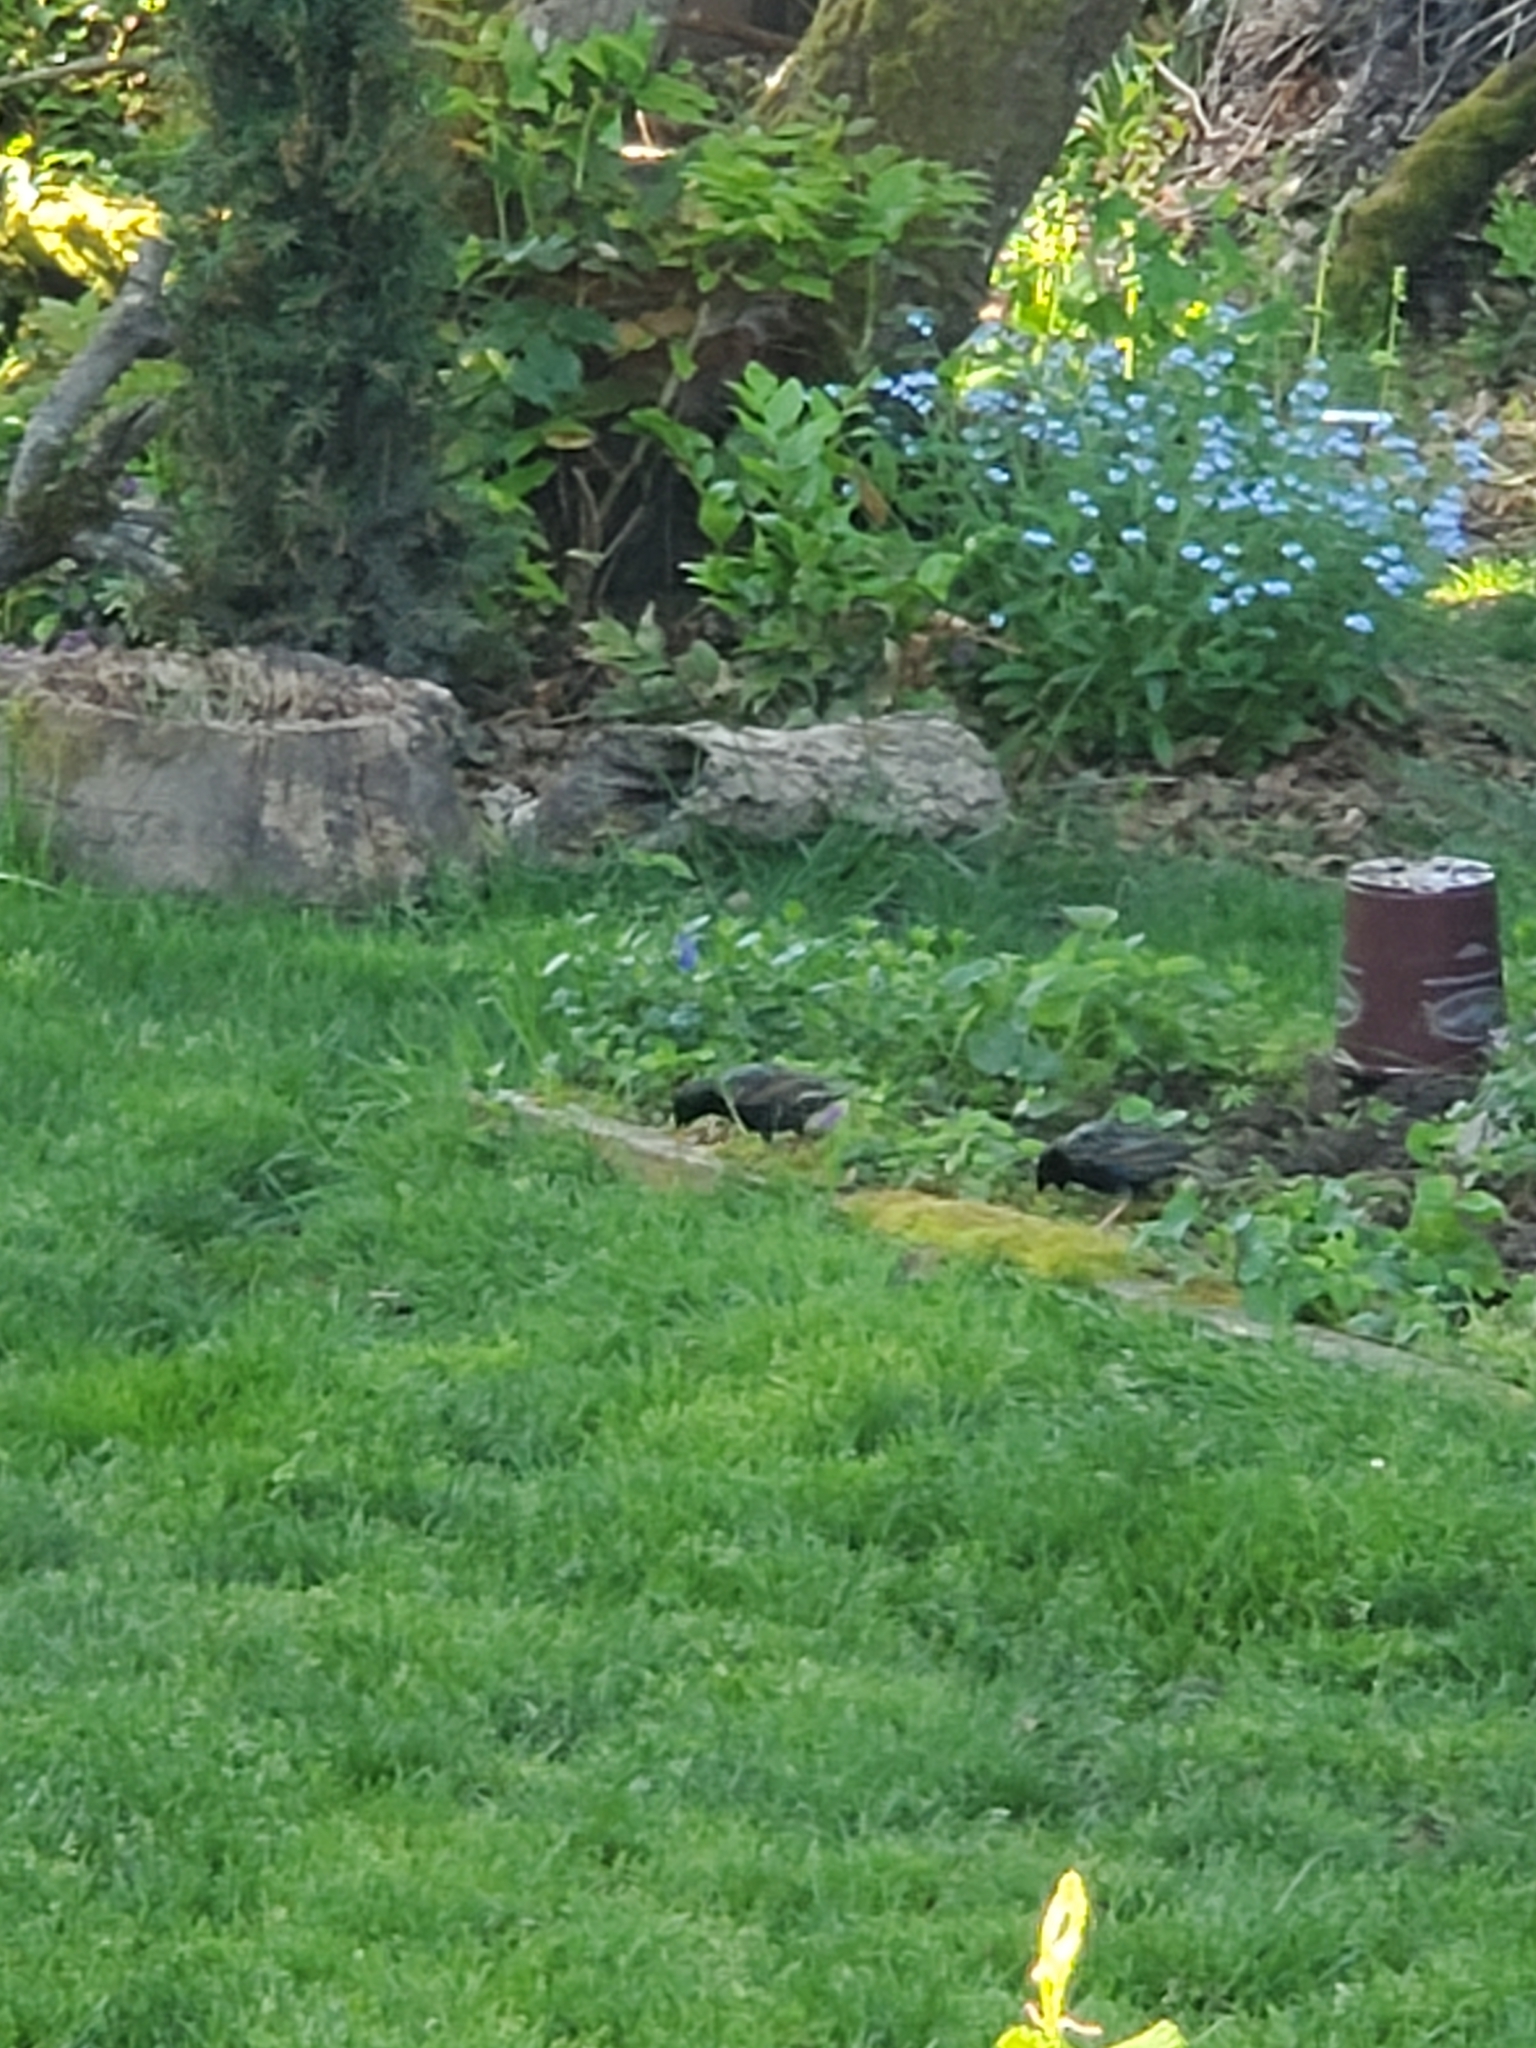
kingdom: Animalia
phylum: Chordata
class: Aves
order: Passeriformes
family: Sturnidae
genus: Sturnus
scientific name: Sturnus vulgaris
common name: Common starling
